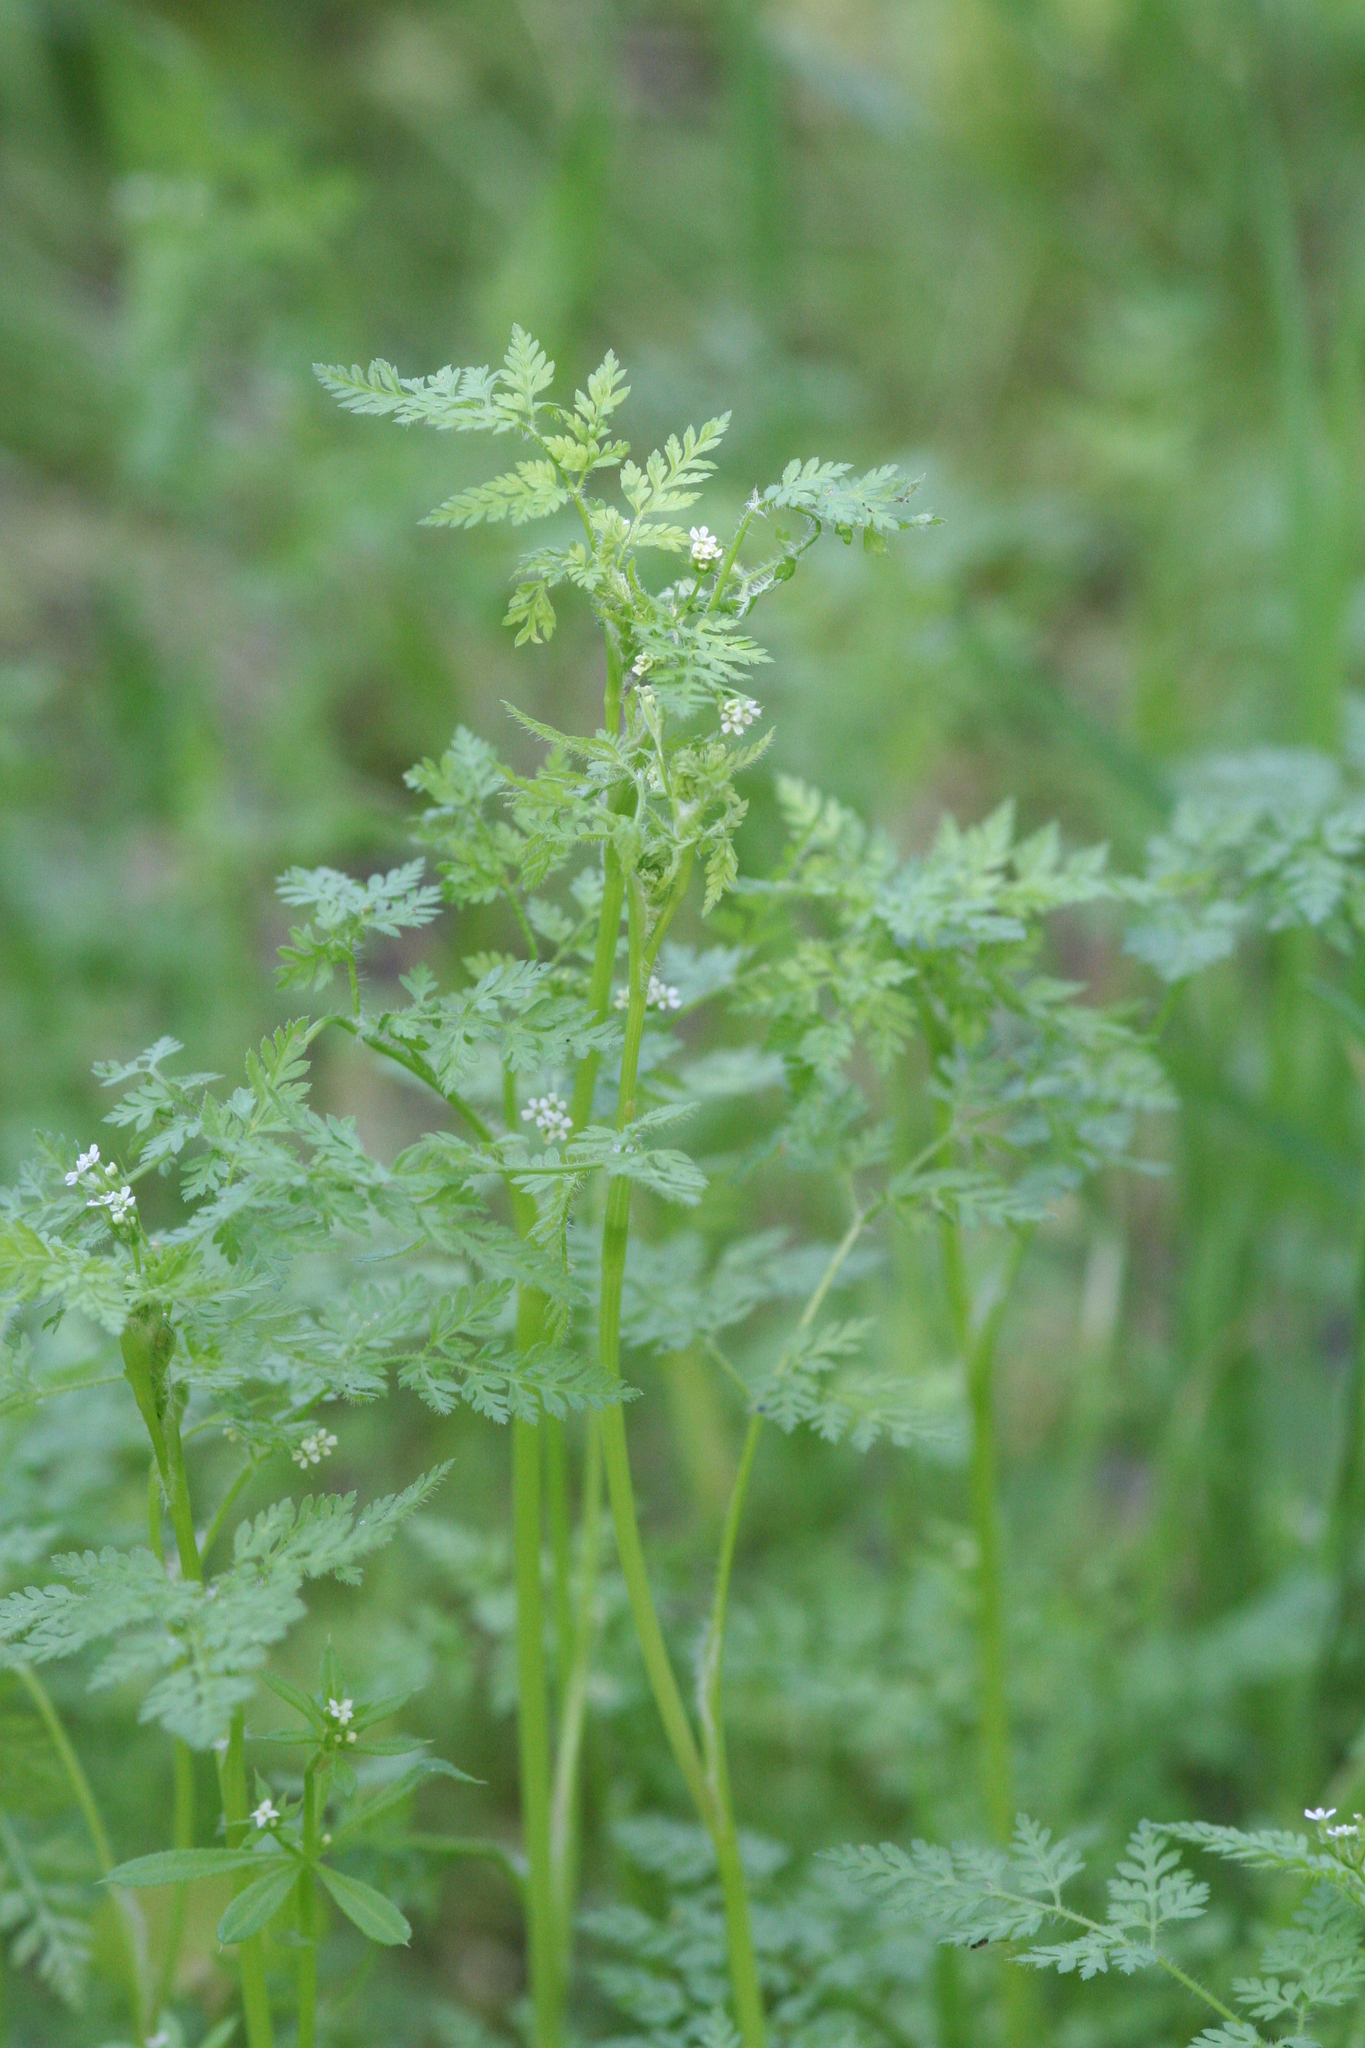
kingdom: Plantae
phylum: Tracheophyta
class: Magnoliopsida
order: Apiales
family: Apiaceae
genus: Anthriscus
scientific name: Anthriscus caucalis
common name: Bur chervil
